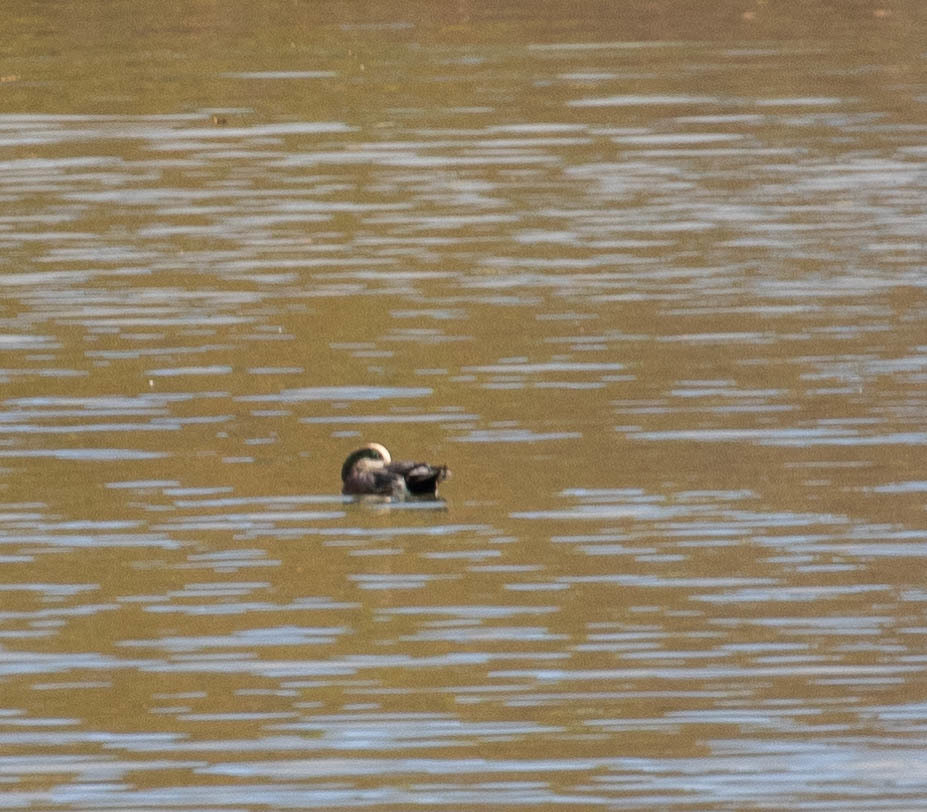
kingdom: Animalia
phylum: Chordata
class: Aves
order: Anseriformes
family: Anatidae
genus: Mareca
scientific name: Mareca americana
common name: American wigeon
